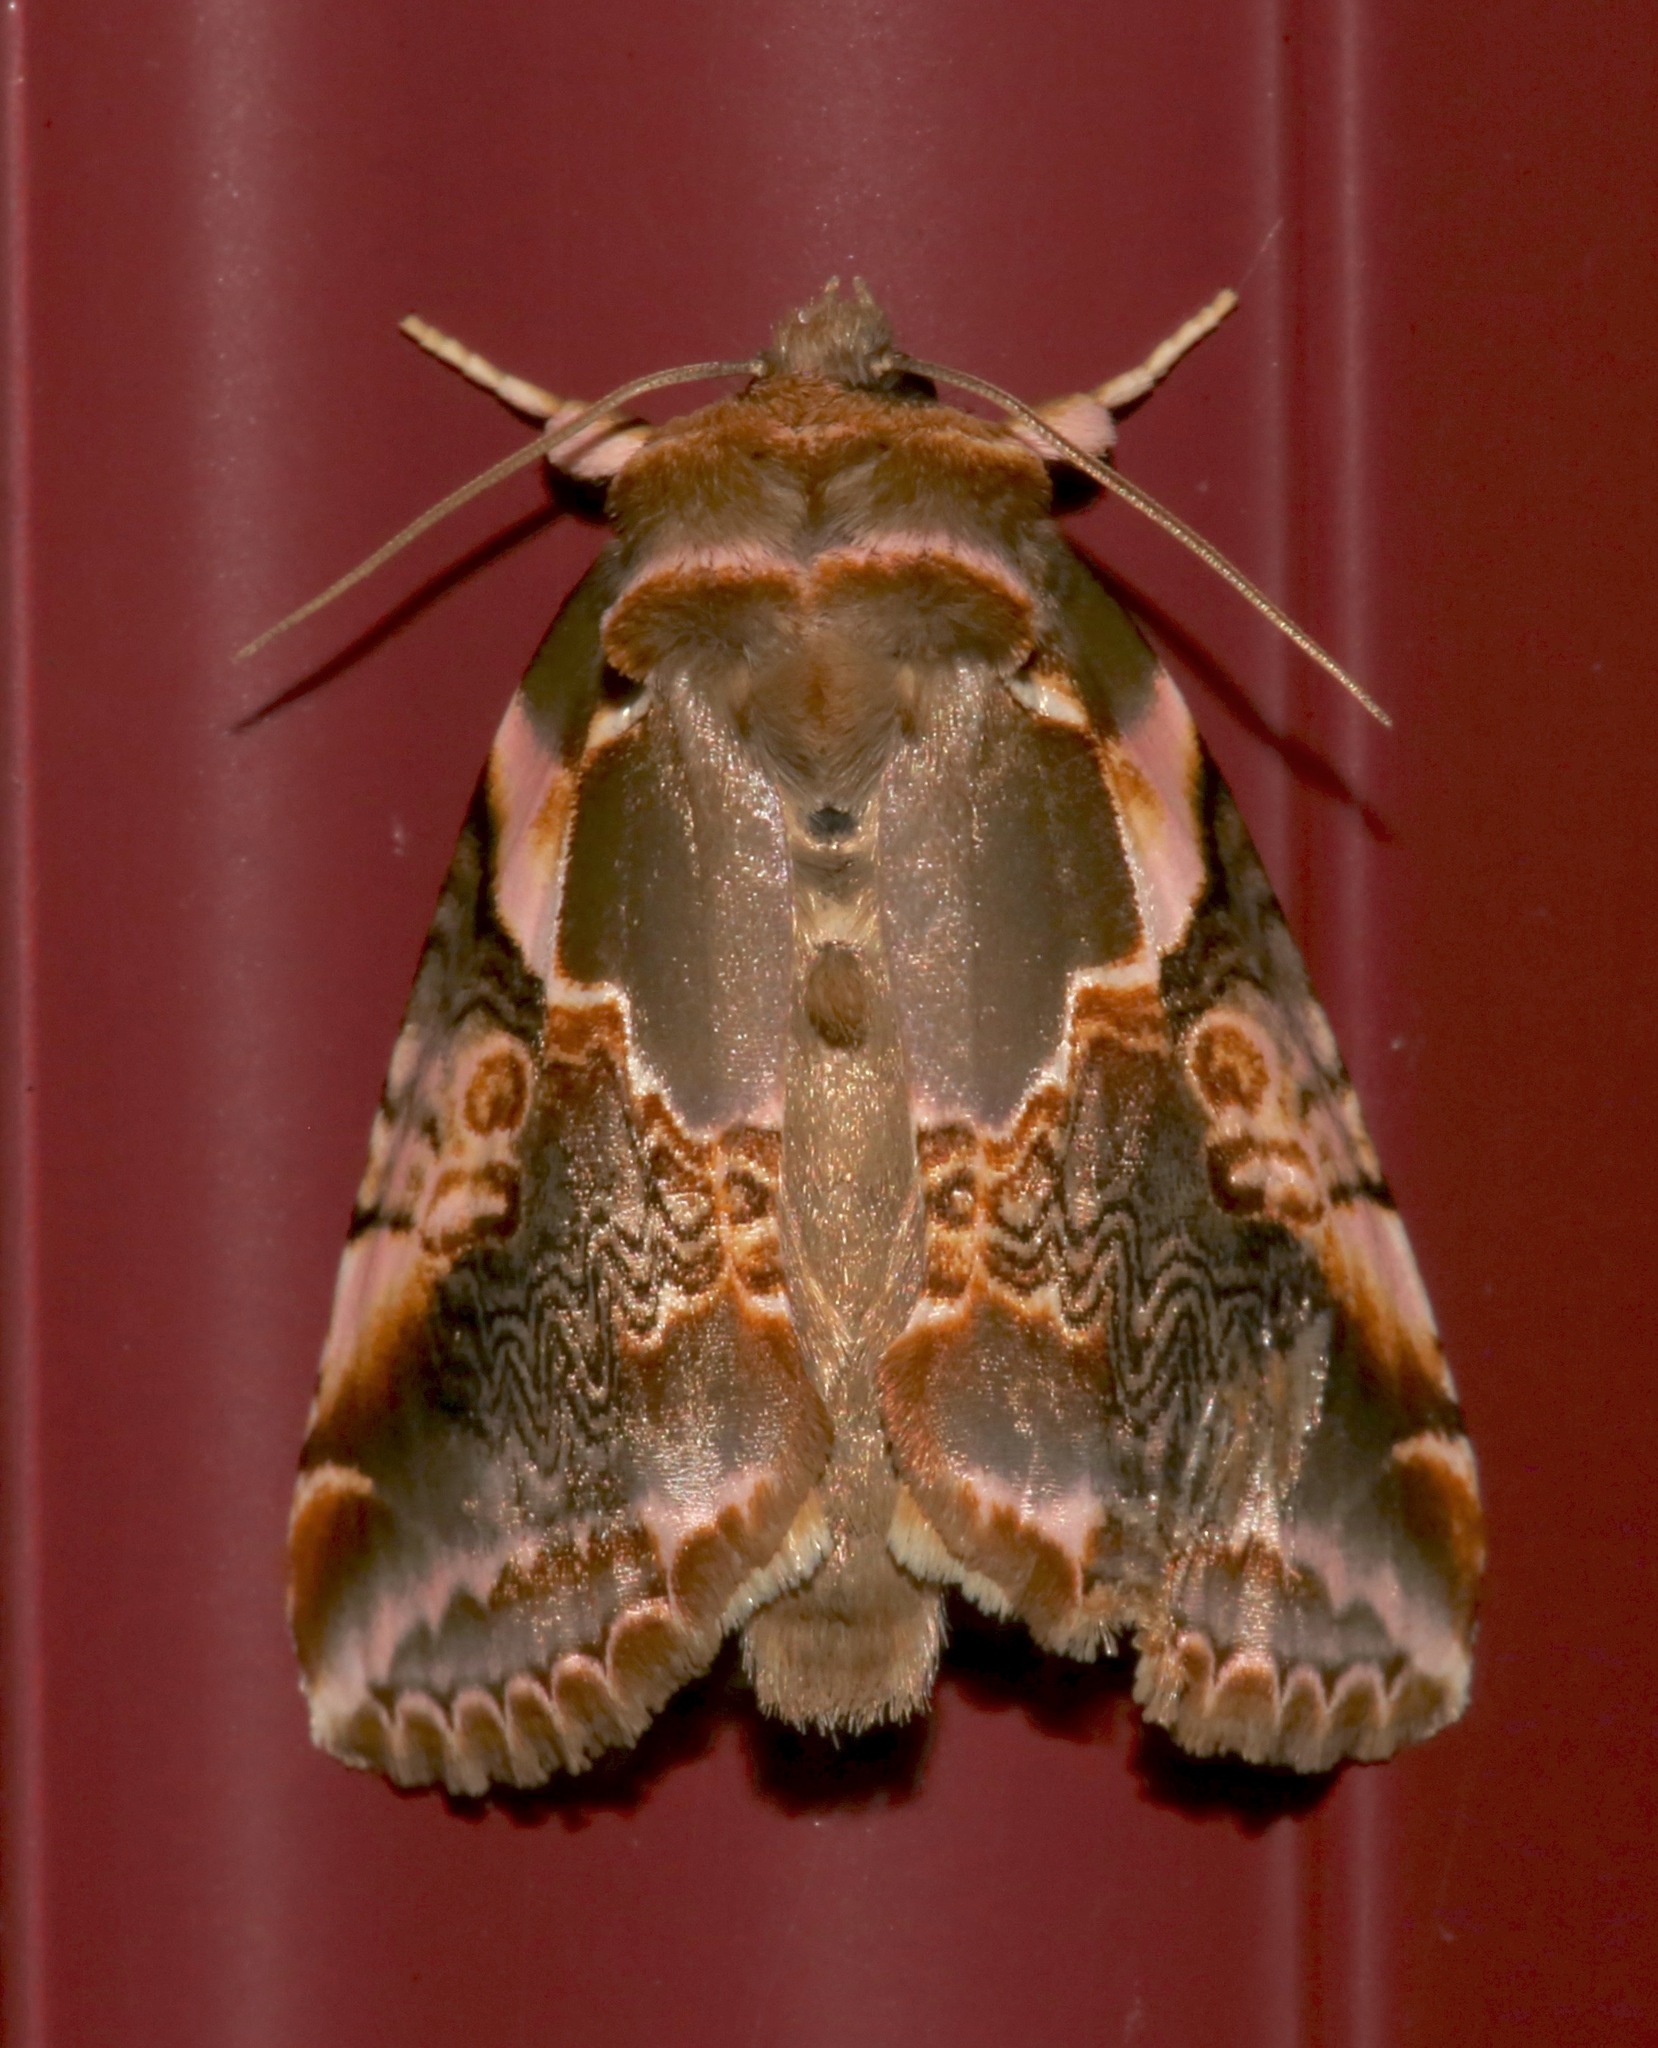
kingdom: Animalia
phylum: Arthropoda
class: Insecta
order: Lepidoptera
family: Drepanidae
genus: Habrosyne
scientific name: Habrosyne gloriosa
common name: Glorious habrosyne moth
